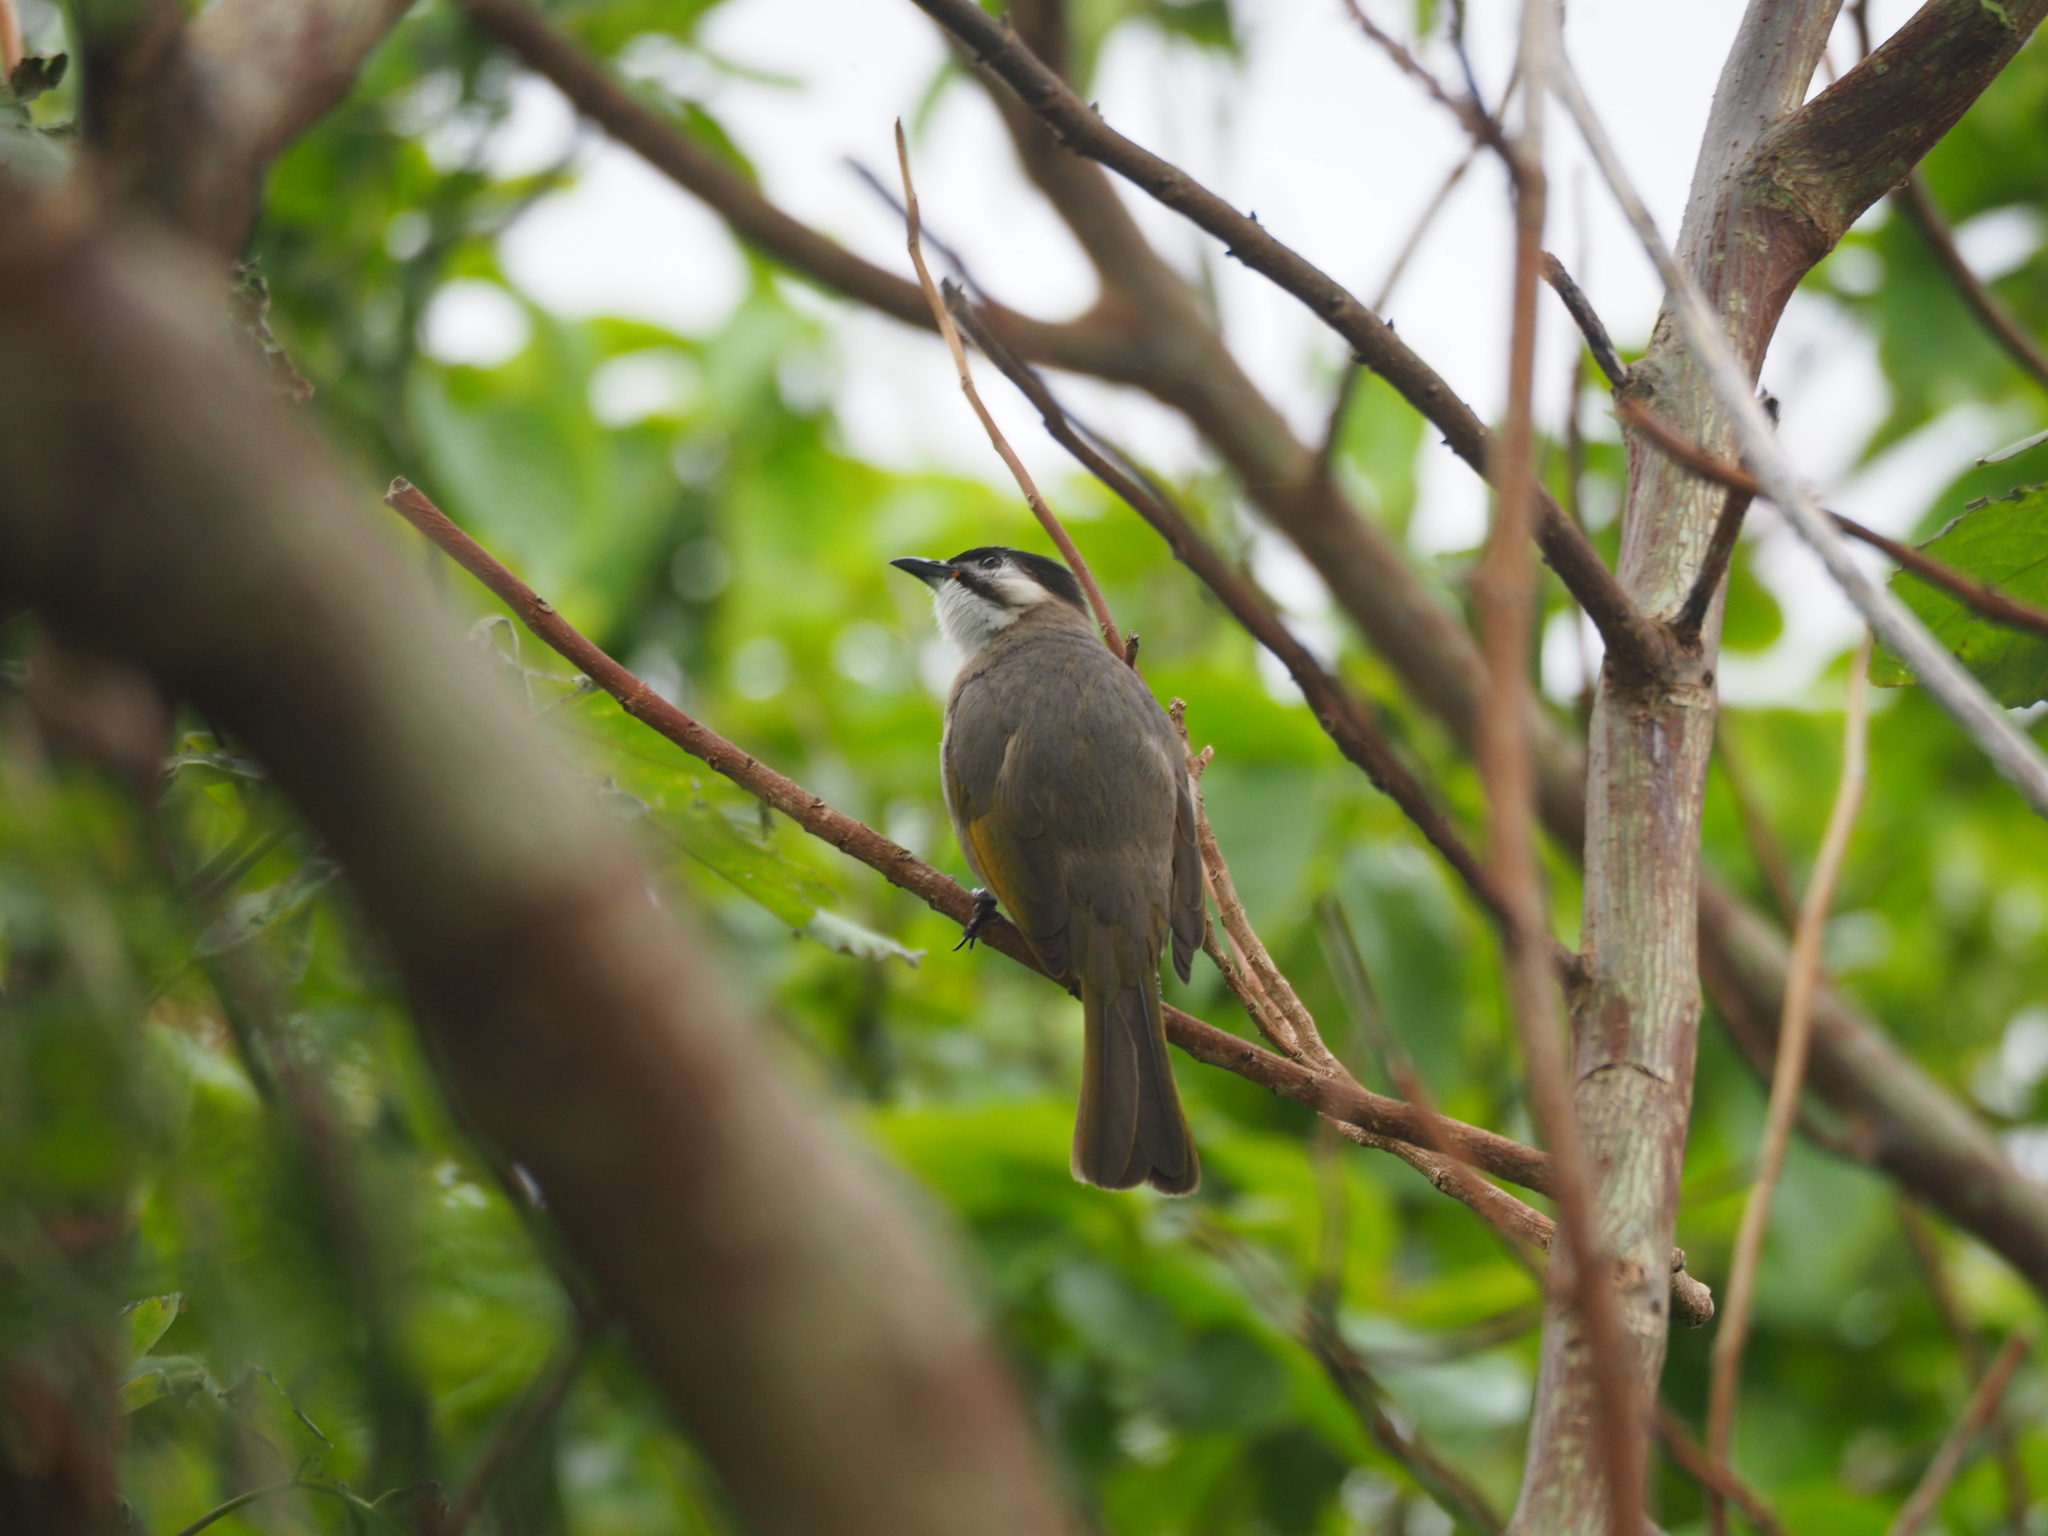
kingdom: Animalia
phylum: Chordata
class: Aves
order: Passeriformes
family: Pycnonotidae
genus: Pycnonotus
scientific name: Pycnonotus taivanus
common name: Styan's bulbul
